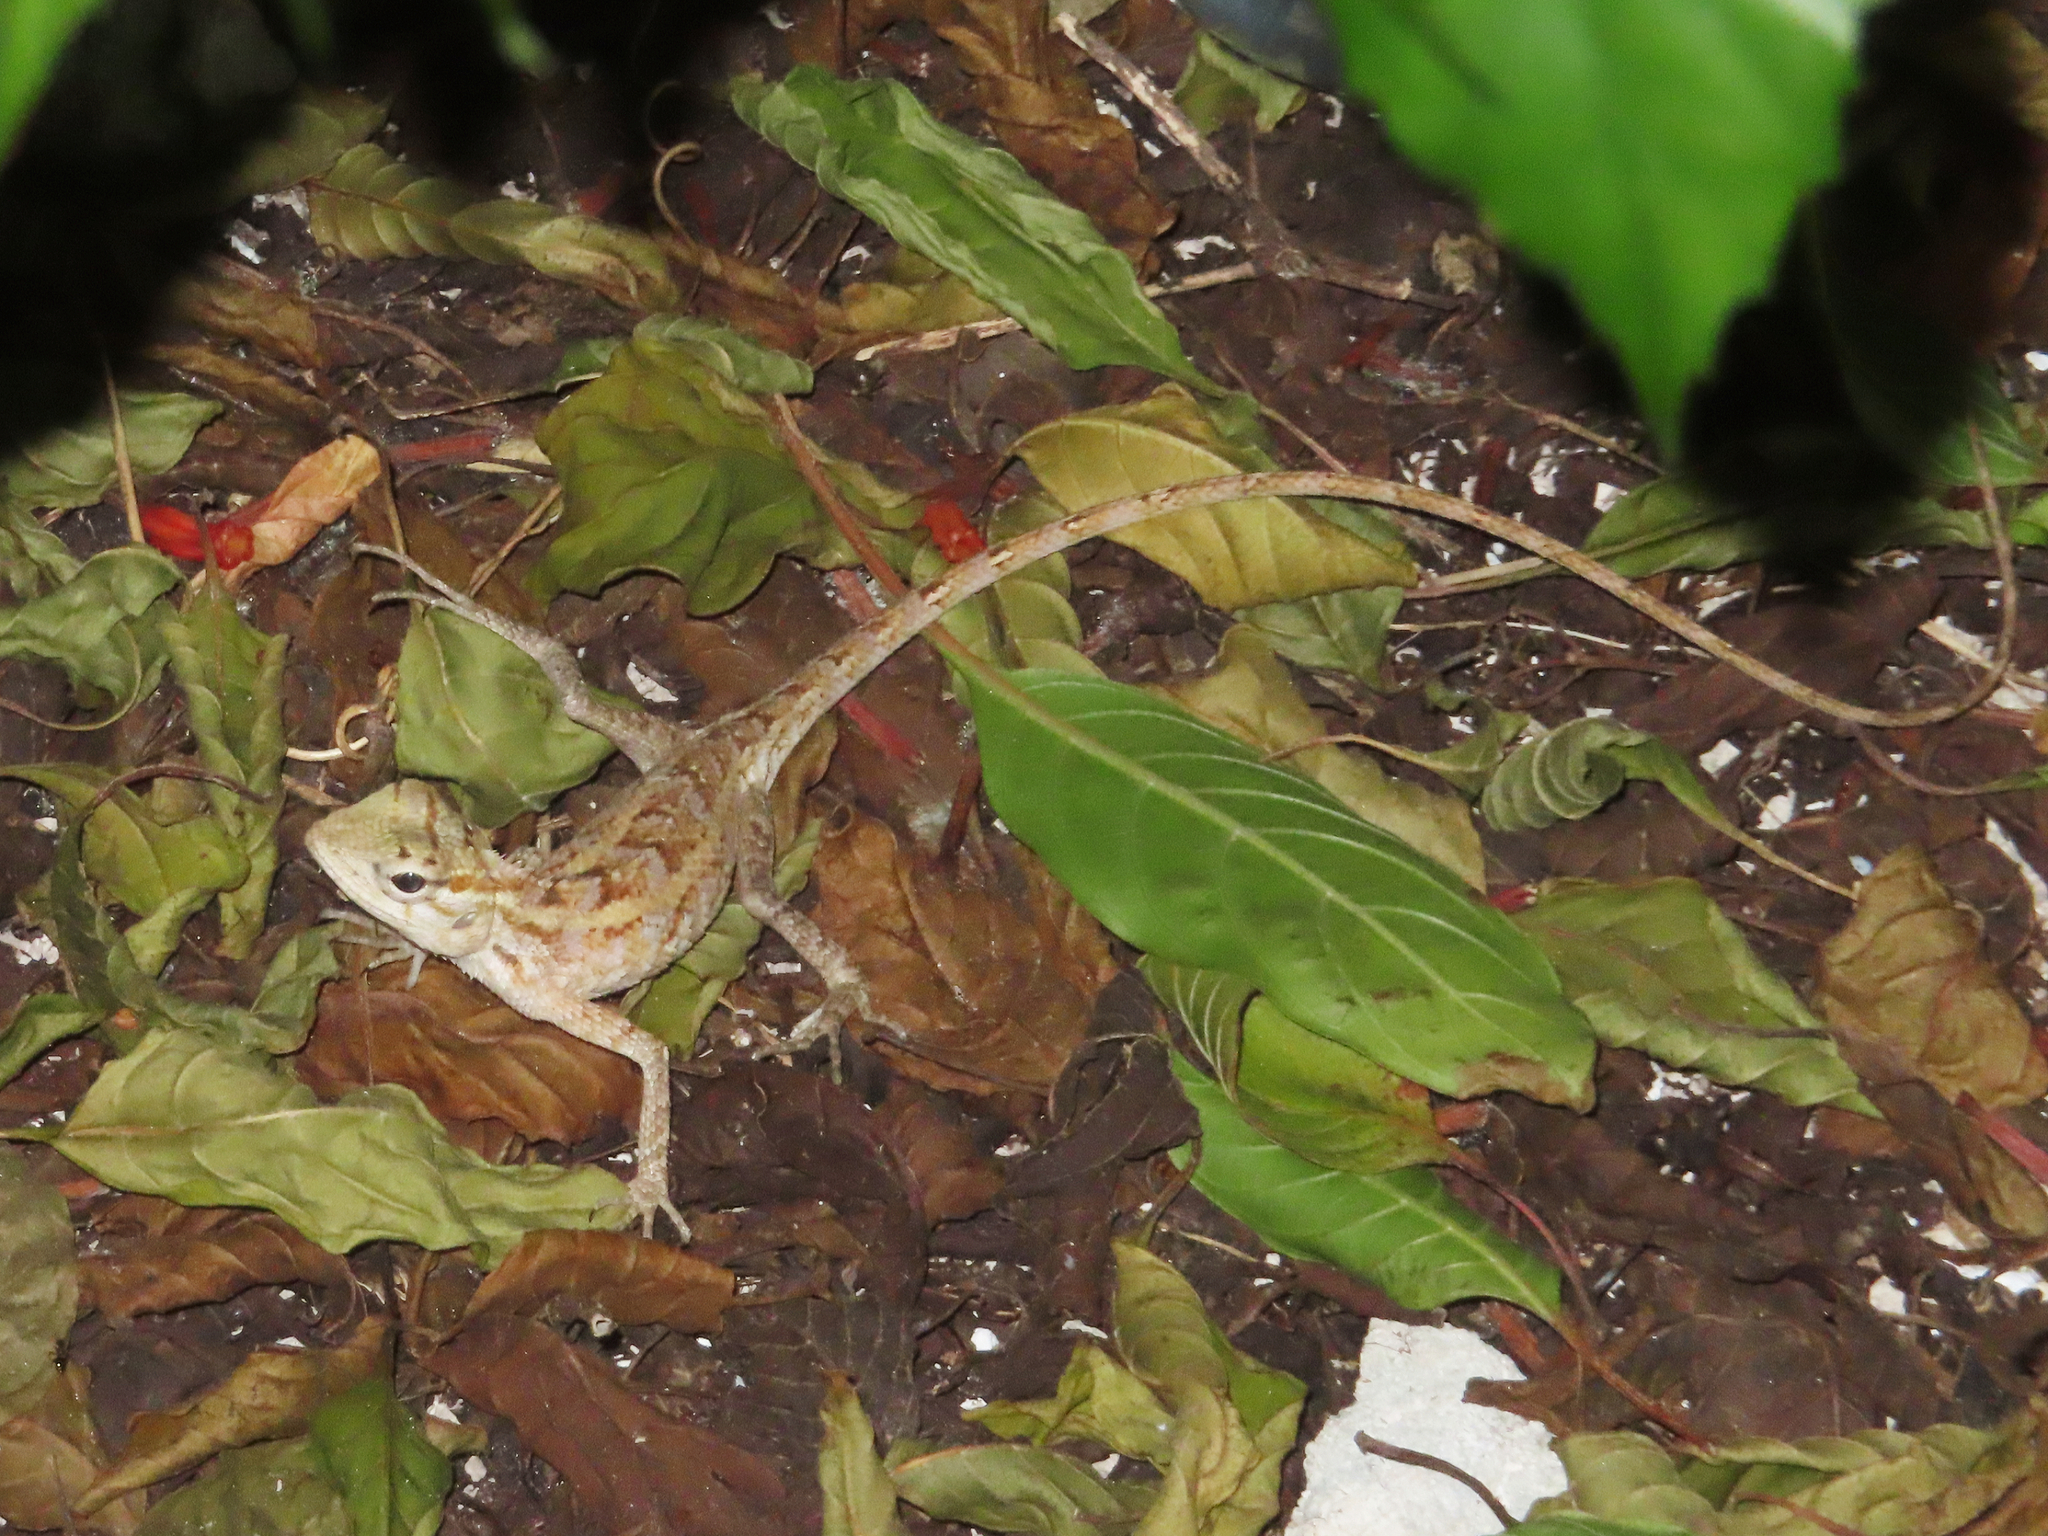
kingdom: Animalia
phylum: Chordata
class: Squamata
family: Agamidae
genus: Calotes
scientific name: Calotes versicolor
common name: Oriental garden lizard
